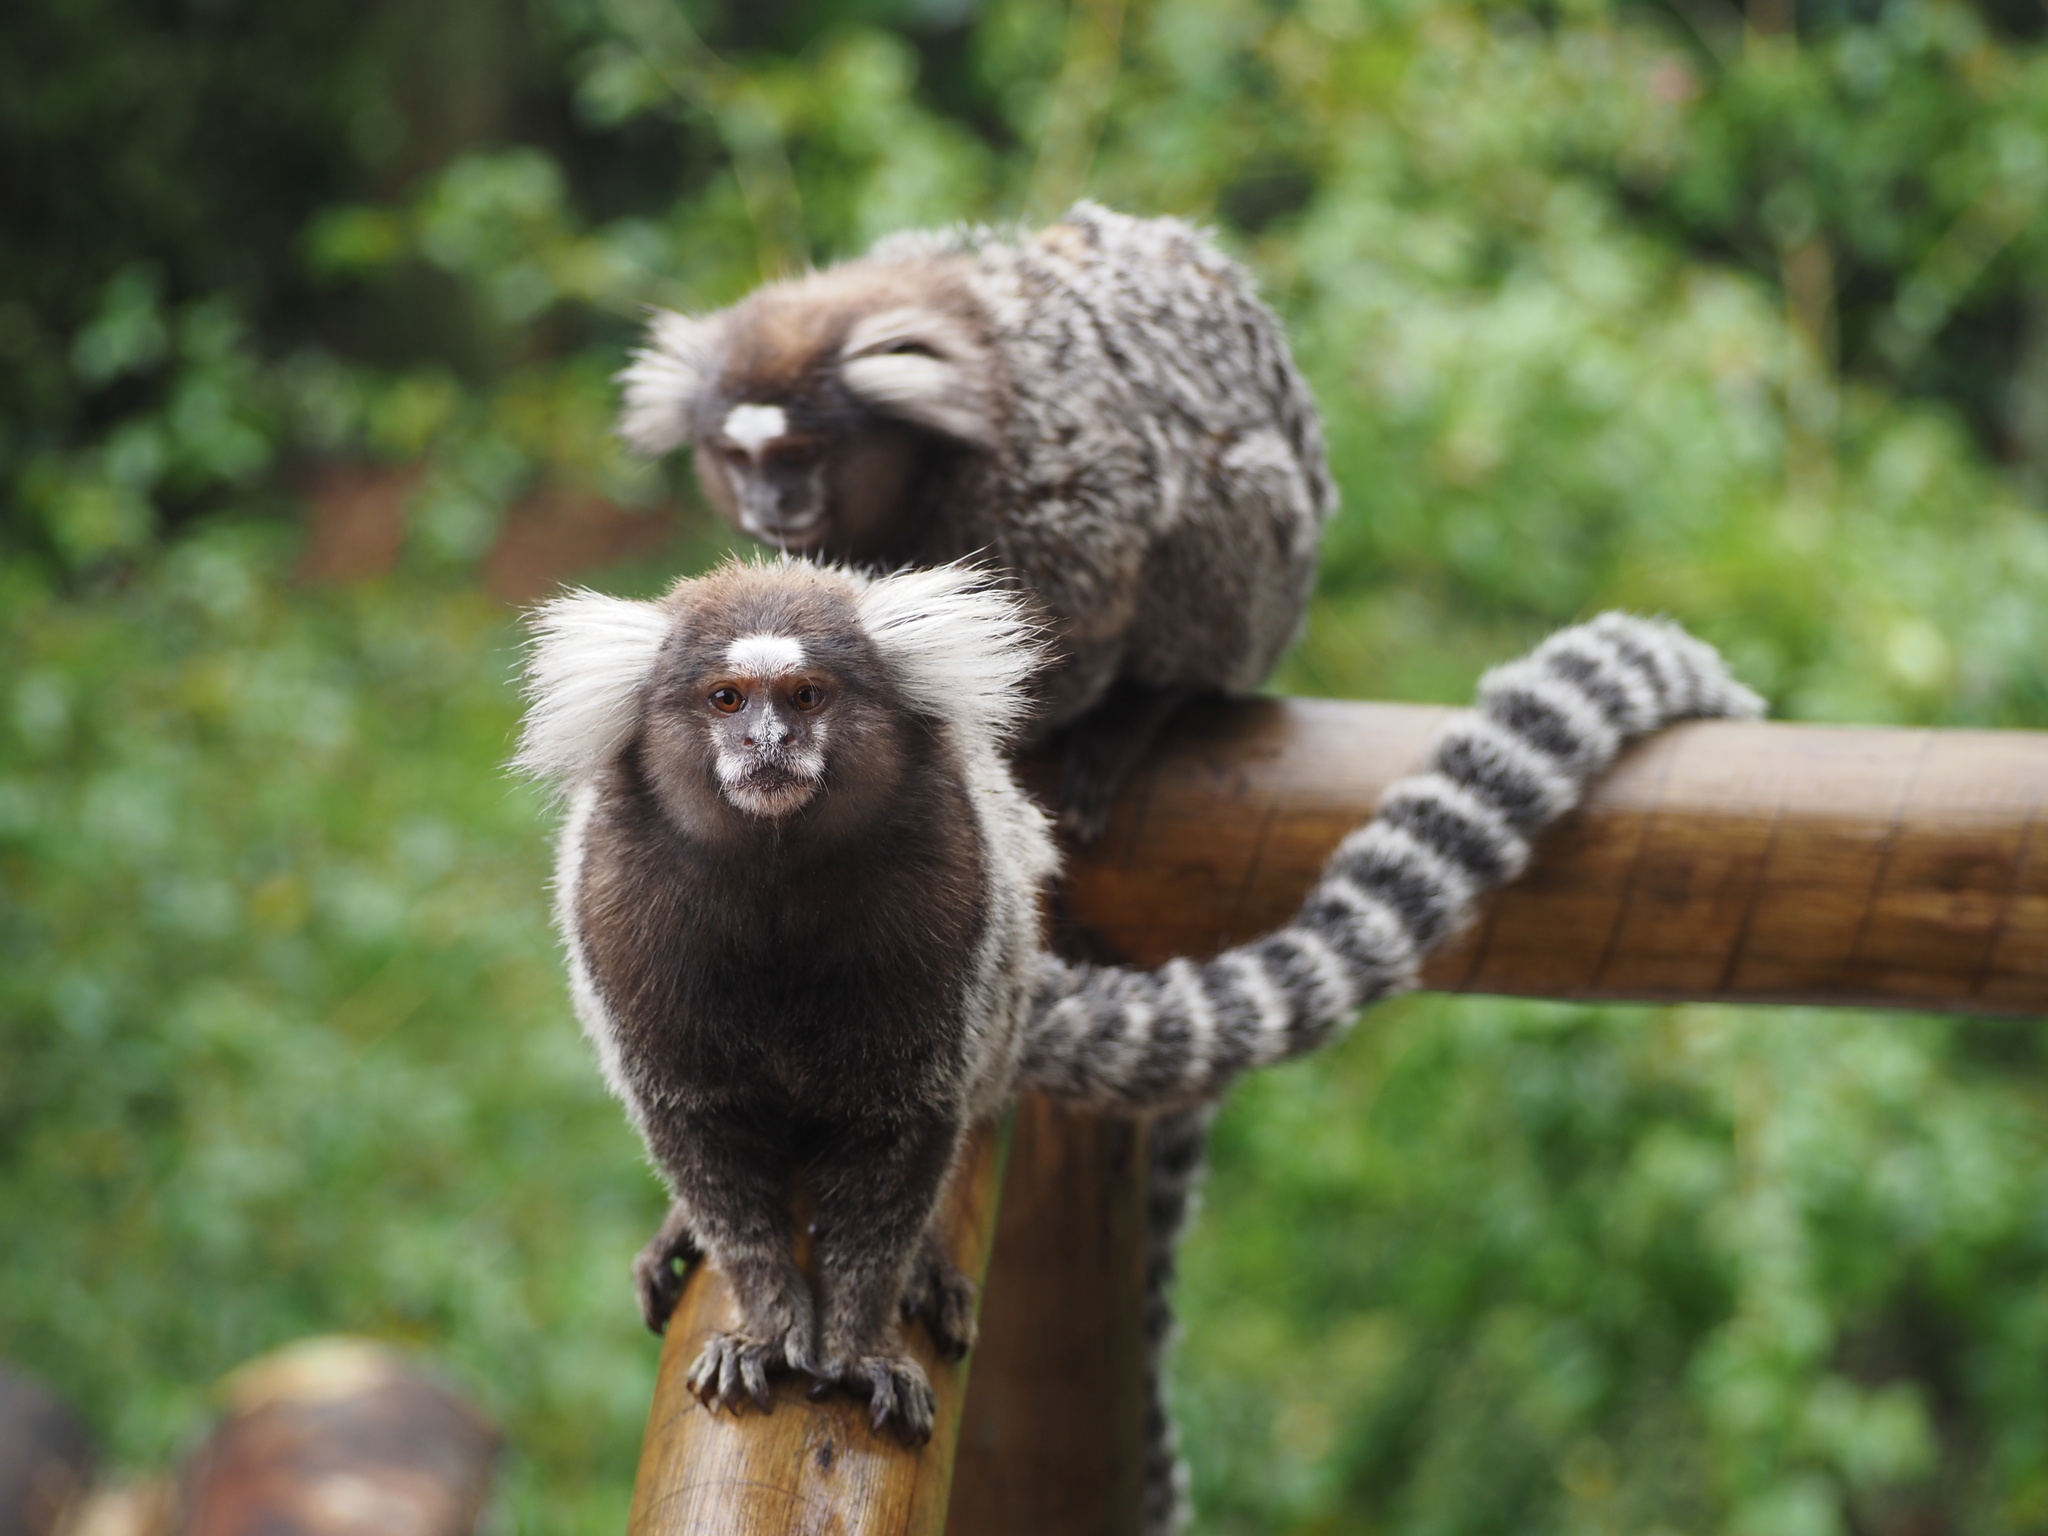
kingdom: Animalia
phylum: Chordata
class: Mammalia
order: Primates
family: Callitrichidae
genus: Callithrix
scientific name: Callithrix jacchus
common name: Common marmoset
